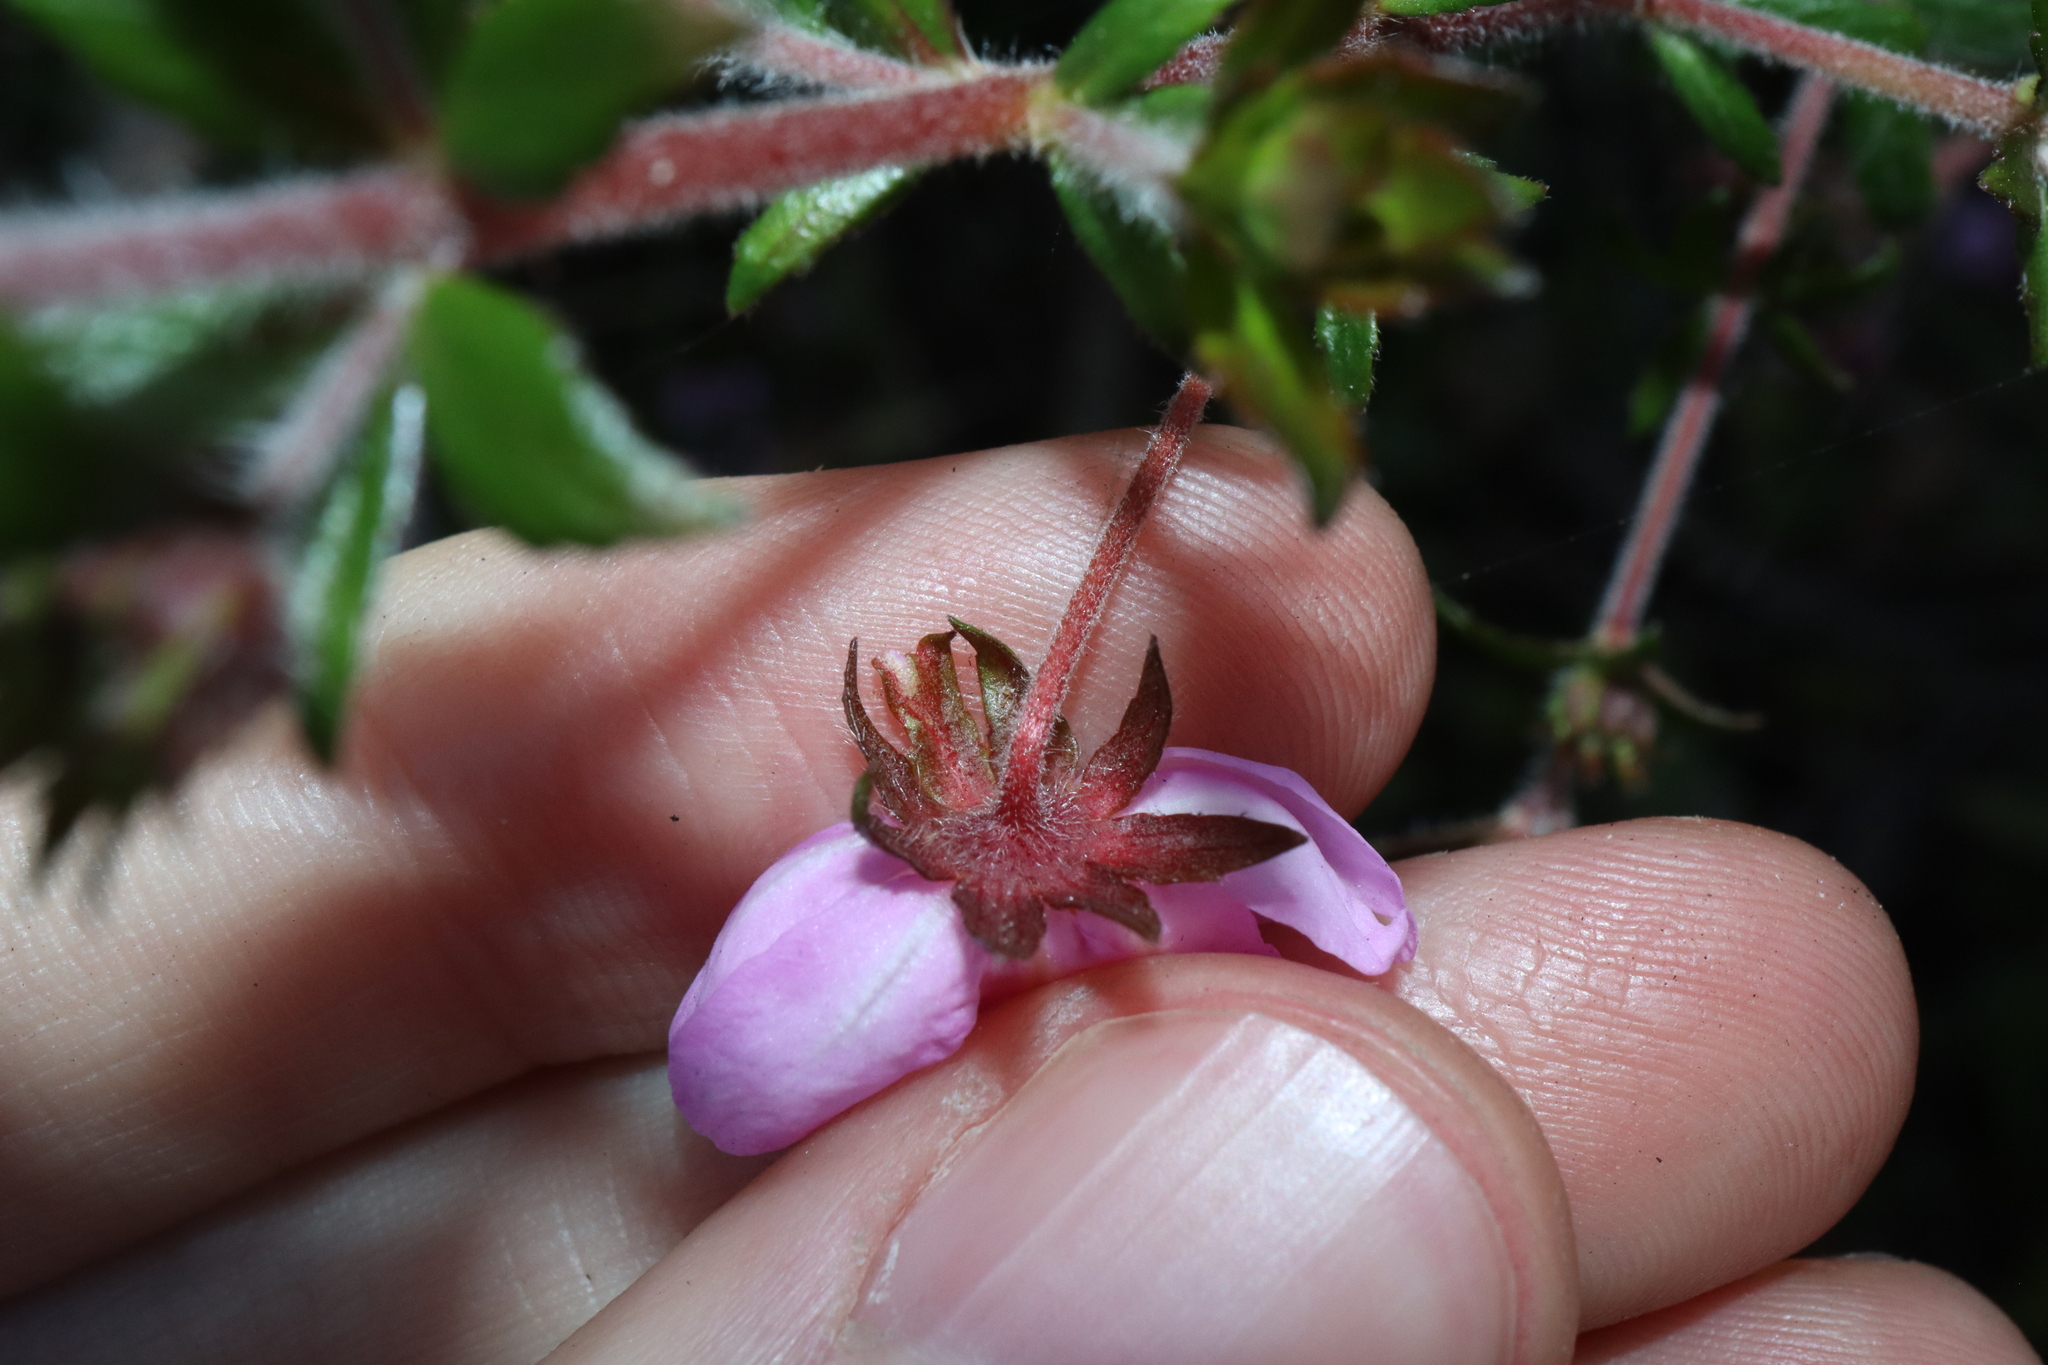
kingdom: Plantae
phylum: Tracheophyta
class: Magnoliopsida
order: Oxalidales
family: Cunoniaceae
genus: Bauera
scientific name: Bauera rubioides
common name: River-rose
